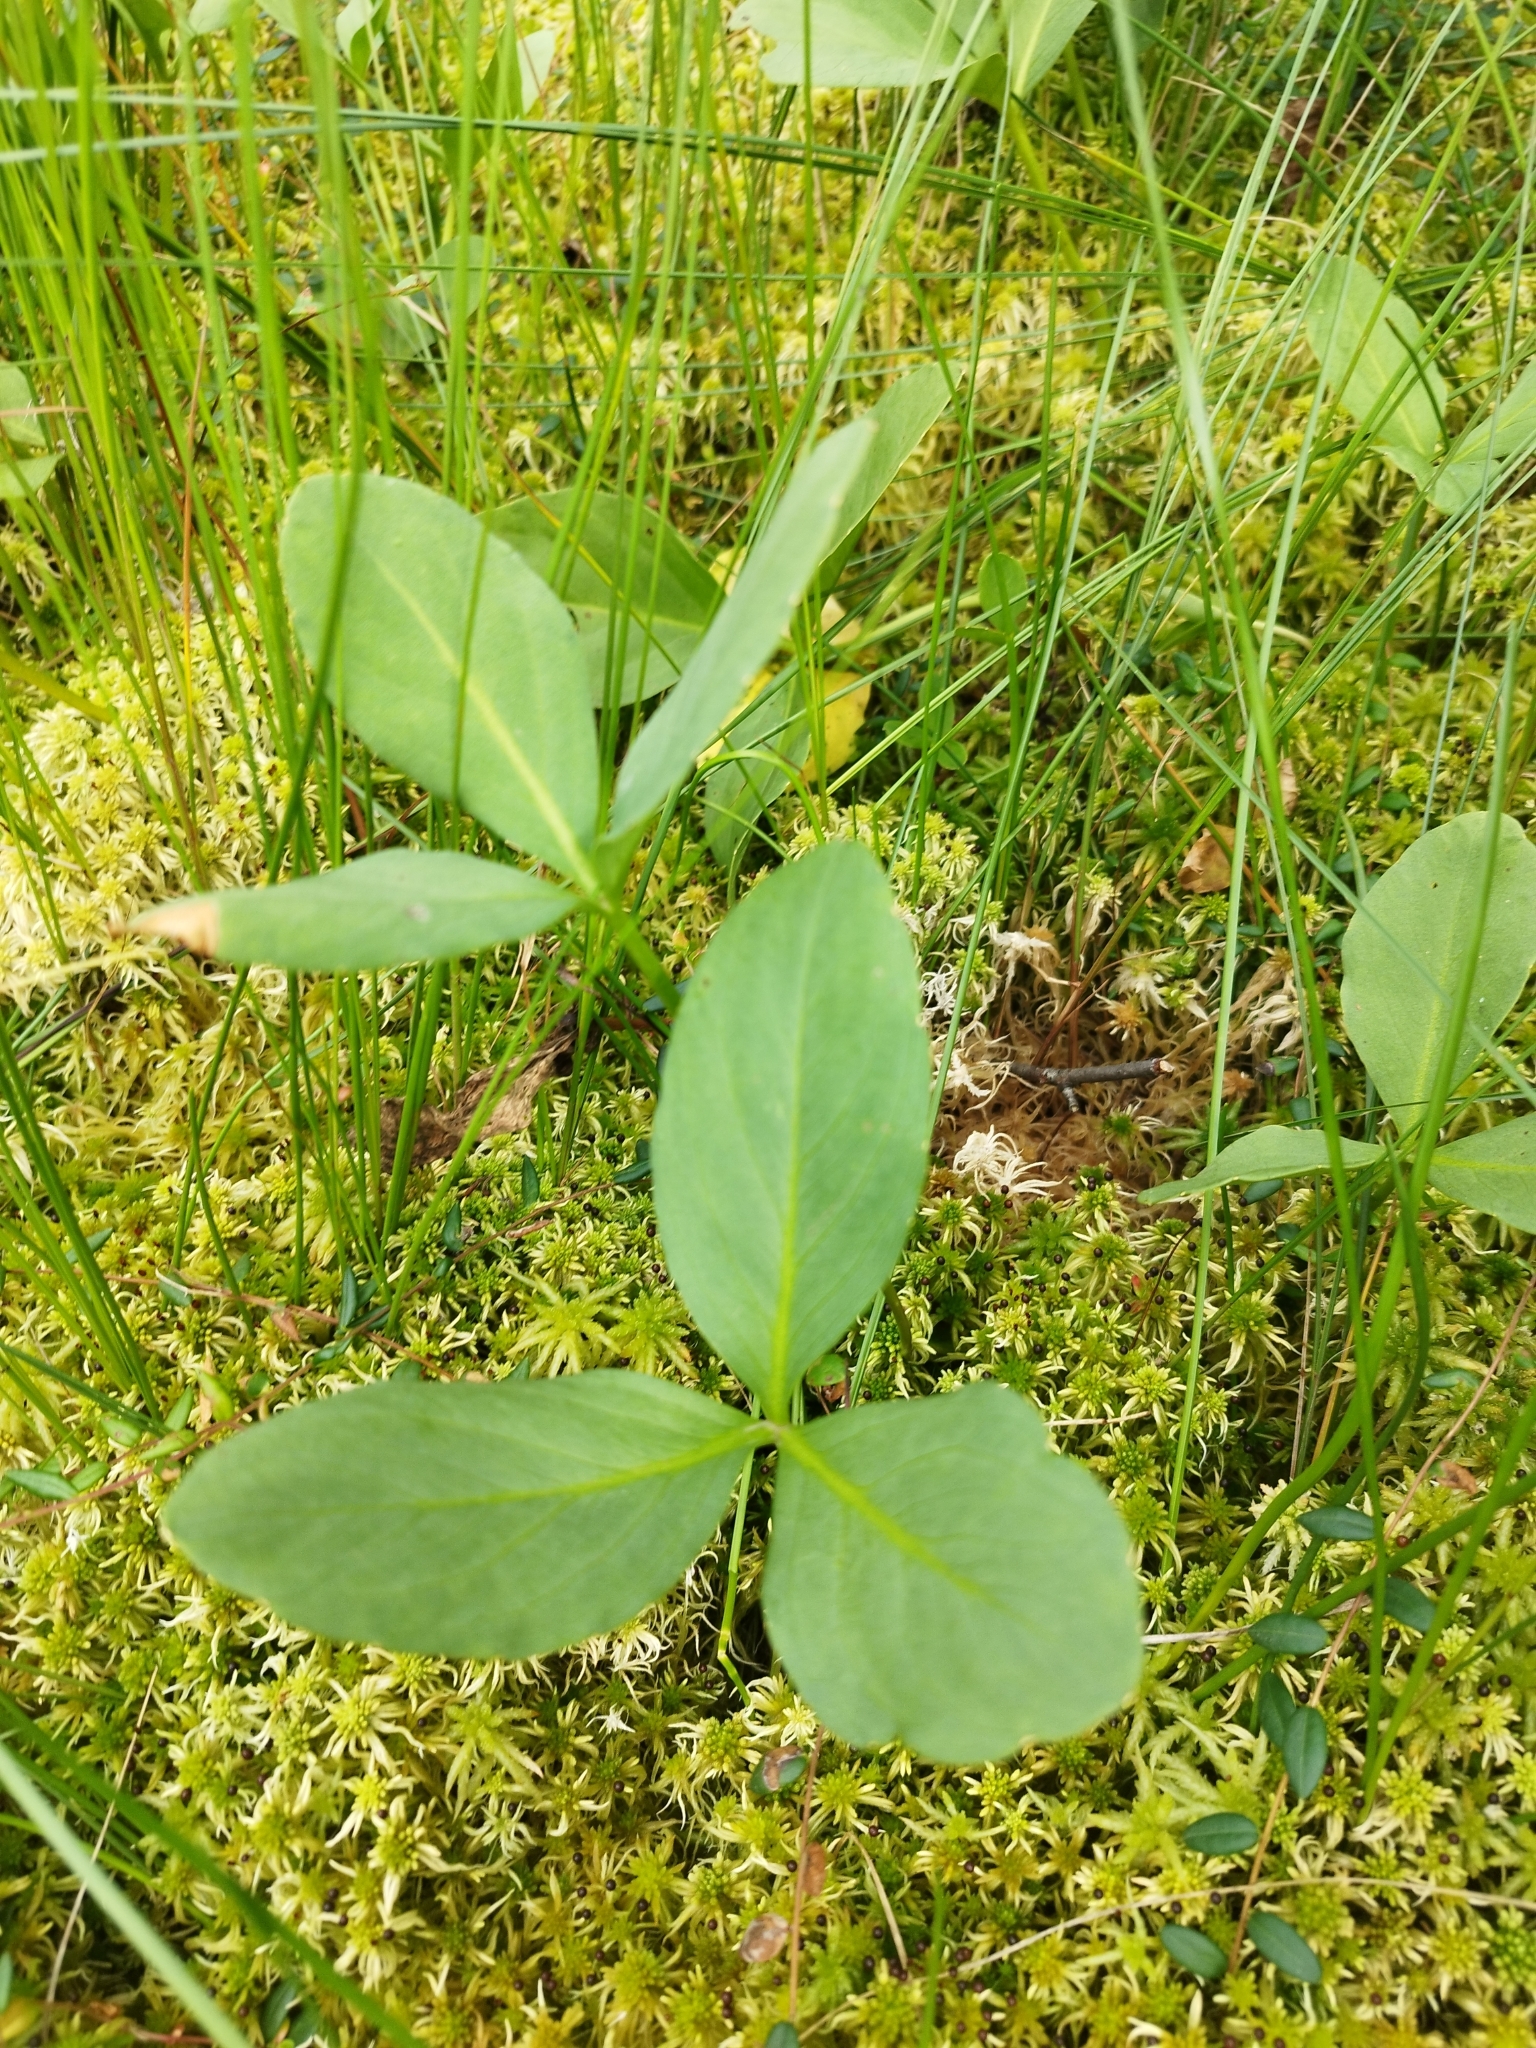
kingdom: Plantae
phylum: Tracheophyta
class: Magnoliopsida
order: Asterales
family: Menyanthaceae
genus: Menyanthes
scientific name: Menyanthes trifoliata
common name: Bogbean
